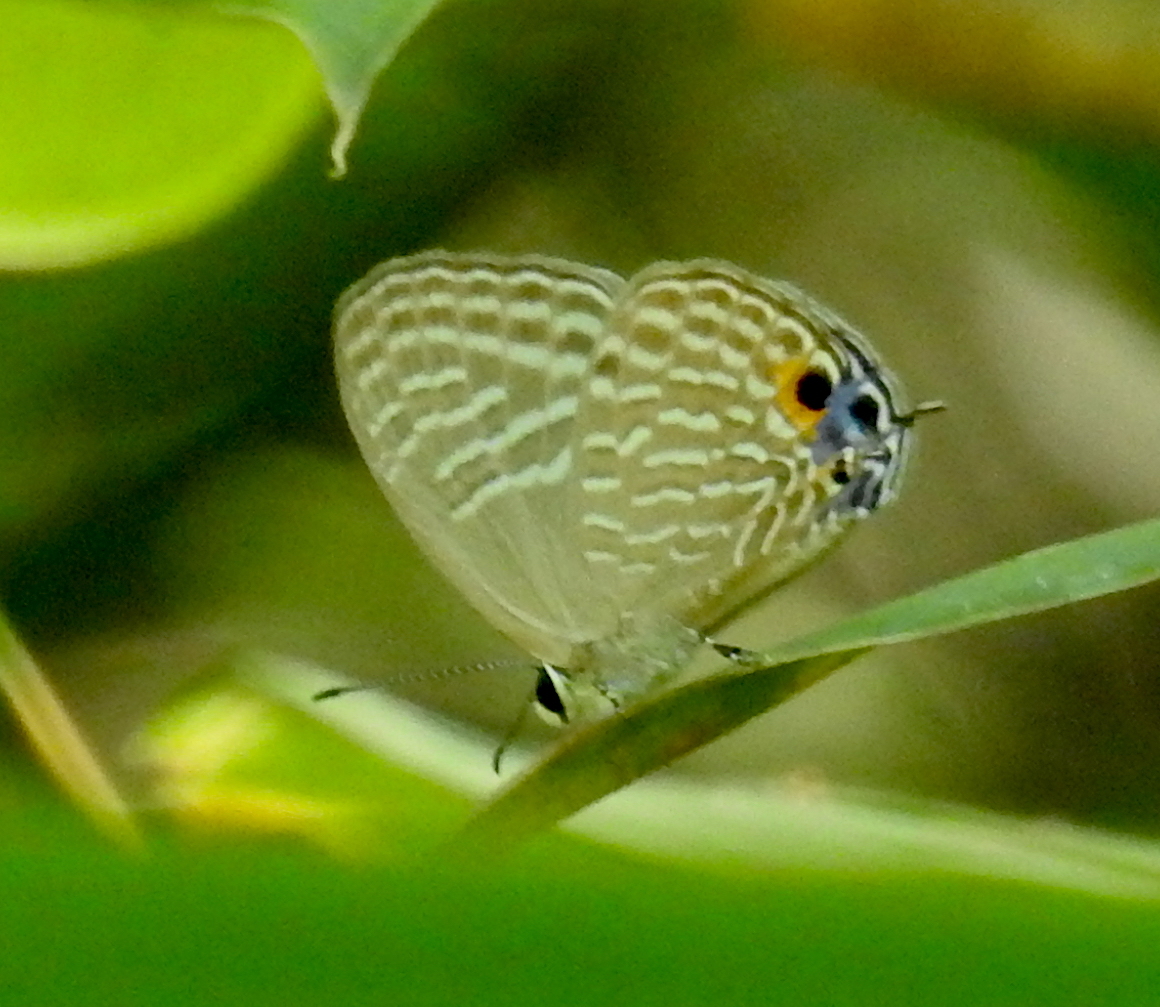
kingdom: Animalia
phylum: Arthropoda
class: Insecta
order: Lepidoptera
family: Lycaenidae
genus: Jamides
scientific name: Jamides alecto
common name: Metallic cerulean
